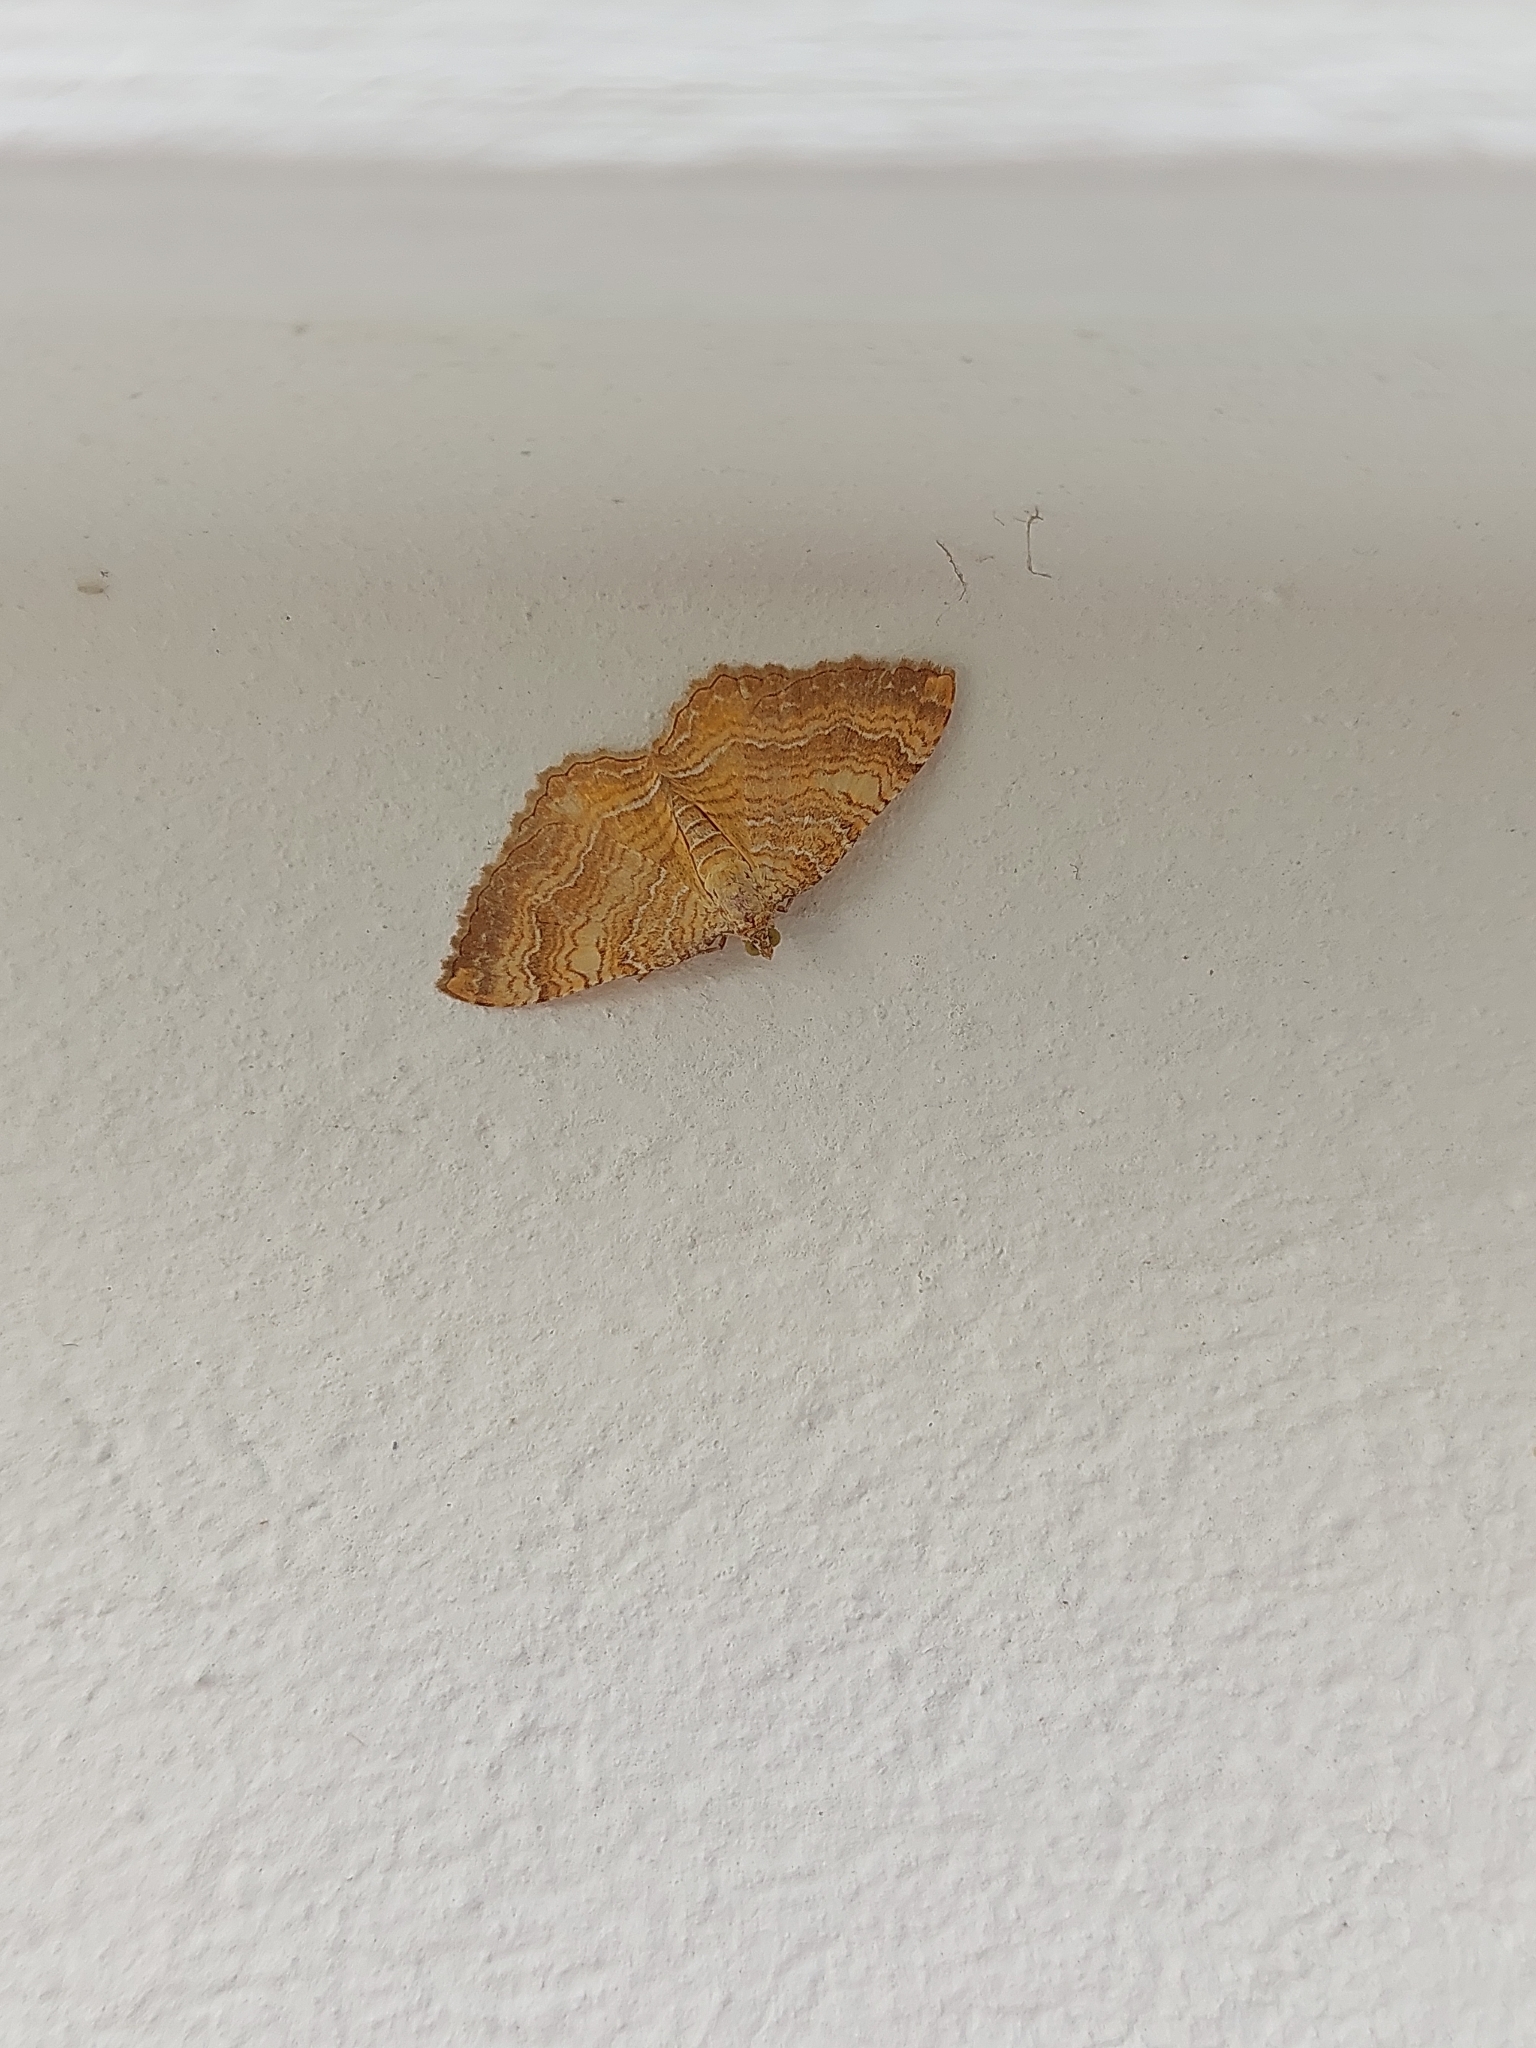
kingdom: Animalia
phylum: Arthropoda
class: Insecta
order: Lepidoptera
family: Geometridae
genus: Camptogramma
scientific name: Camptogramma bilineata
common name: Yellow shell
